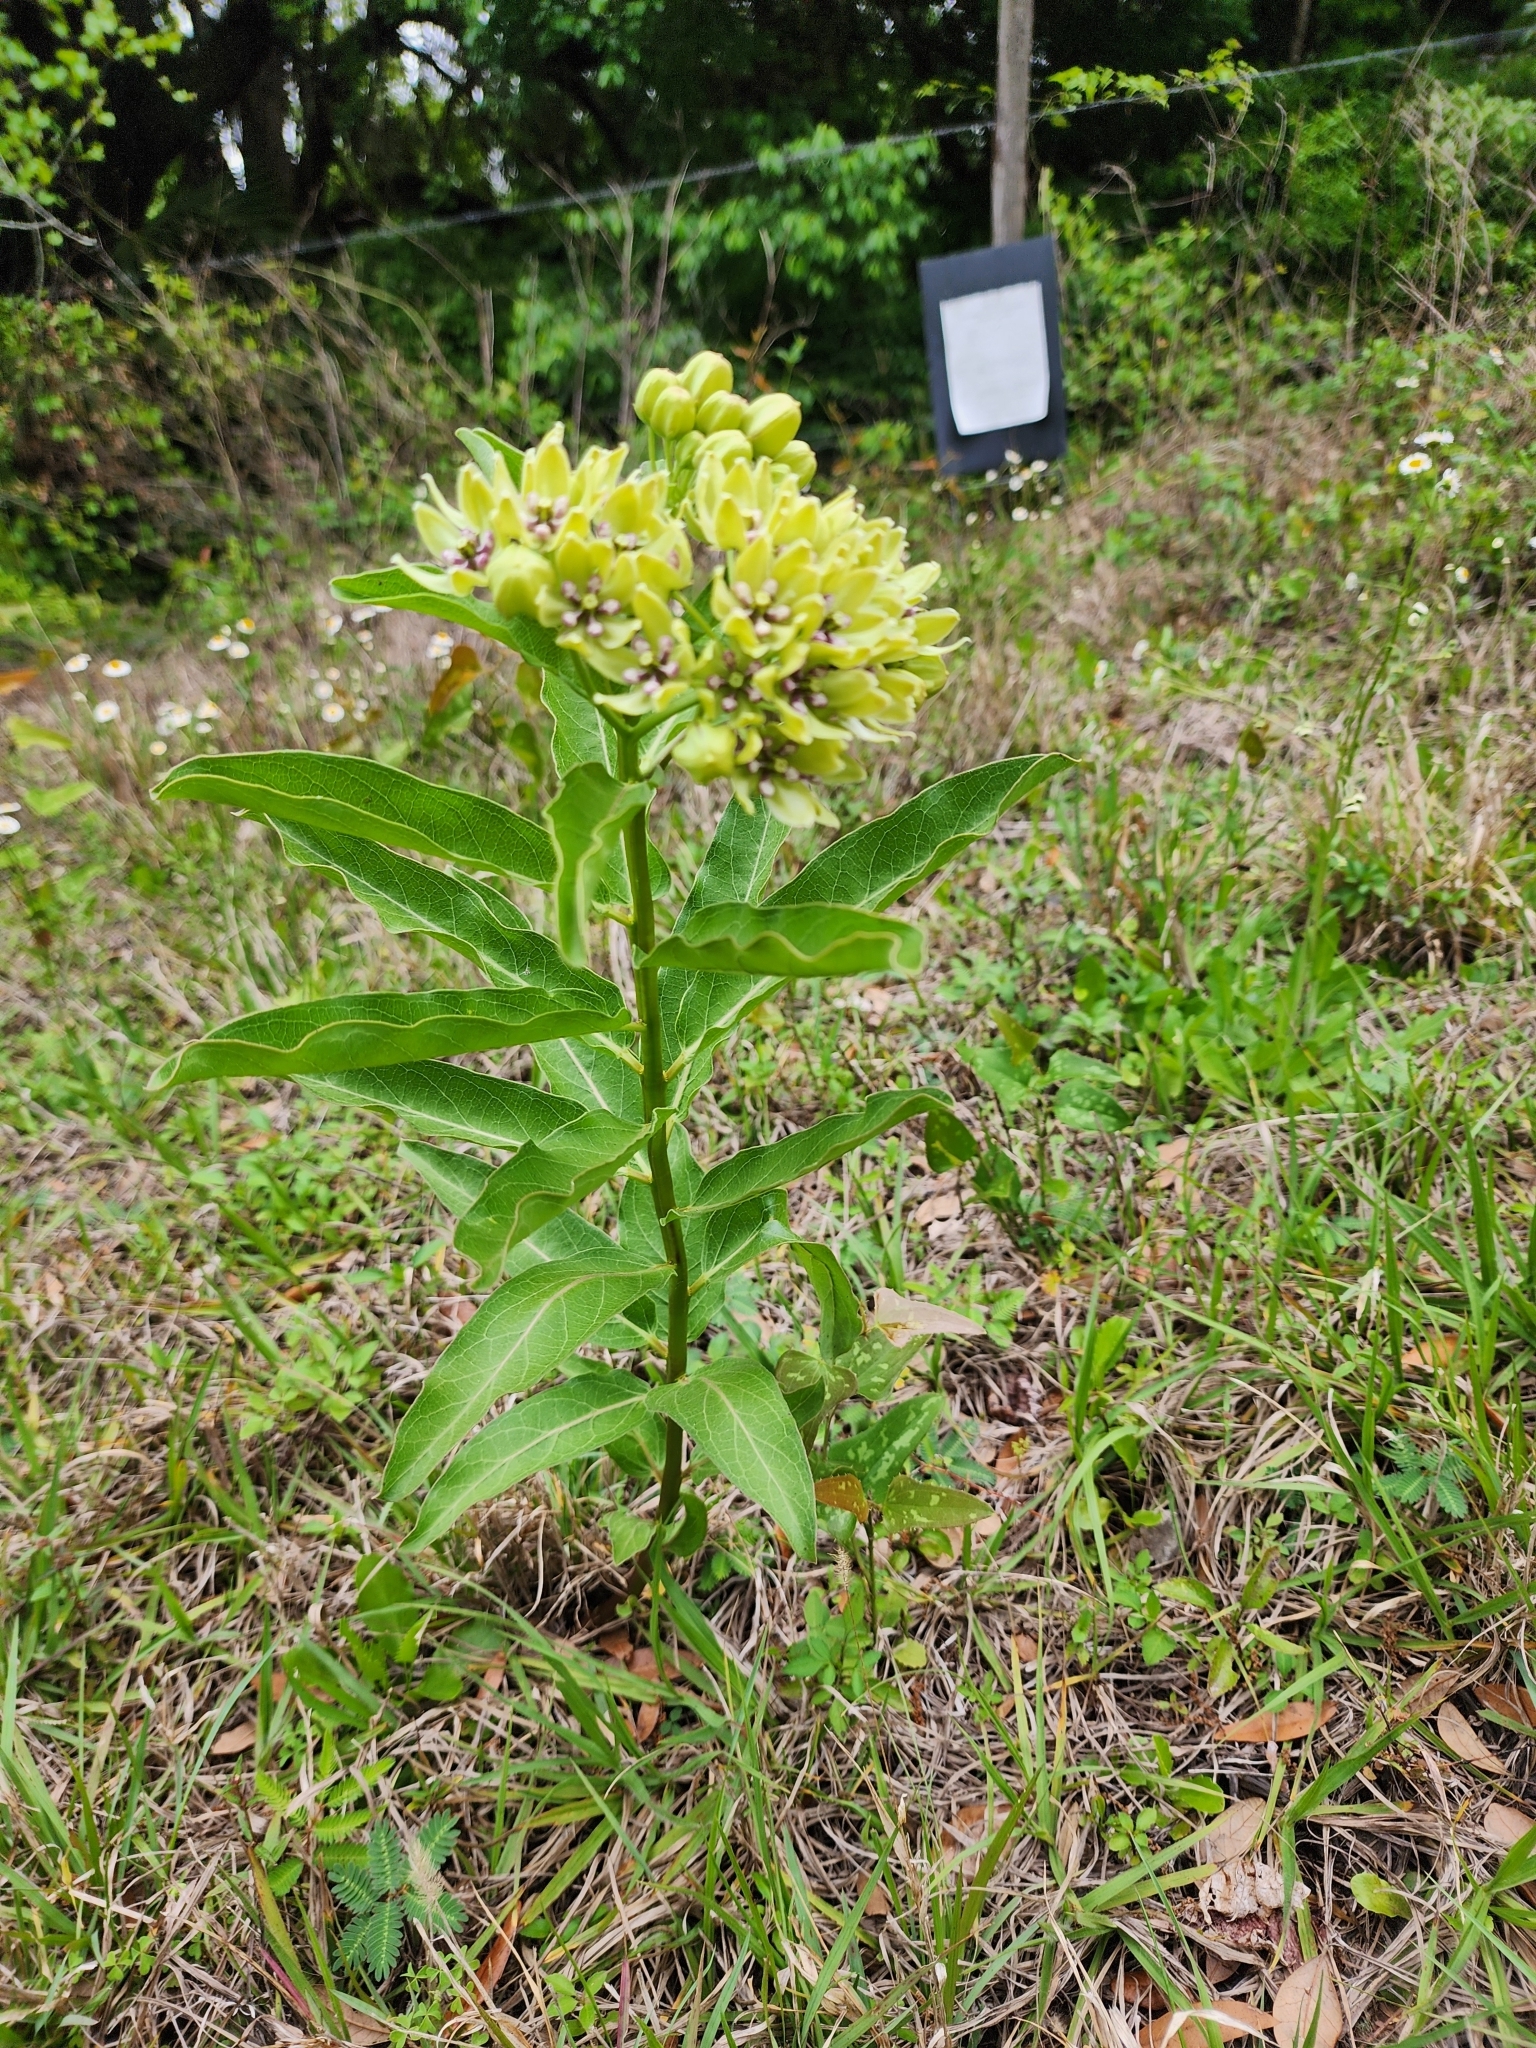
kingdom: Plantae
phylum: Tracheophyta
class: Magnoliopsida
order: Gentianales
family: Apocynaceae
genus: Asclepias
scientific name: Asclepias viridis
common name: Antelope-horns
